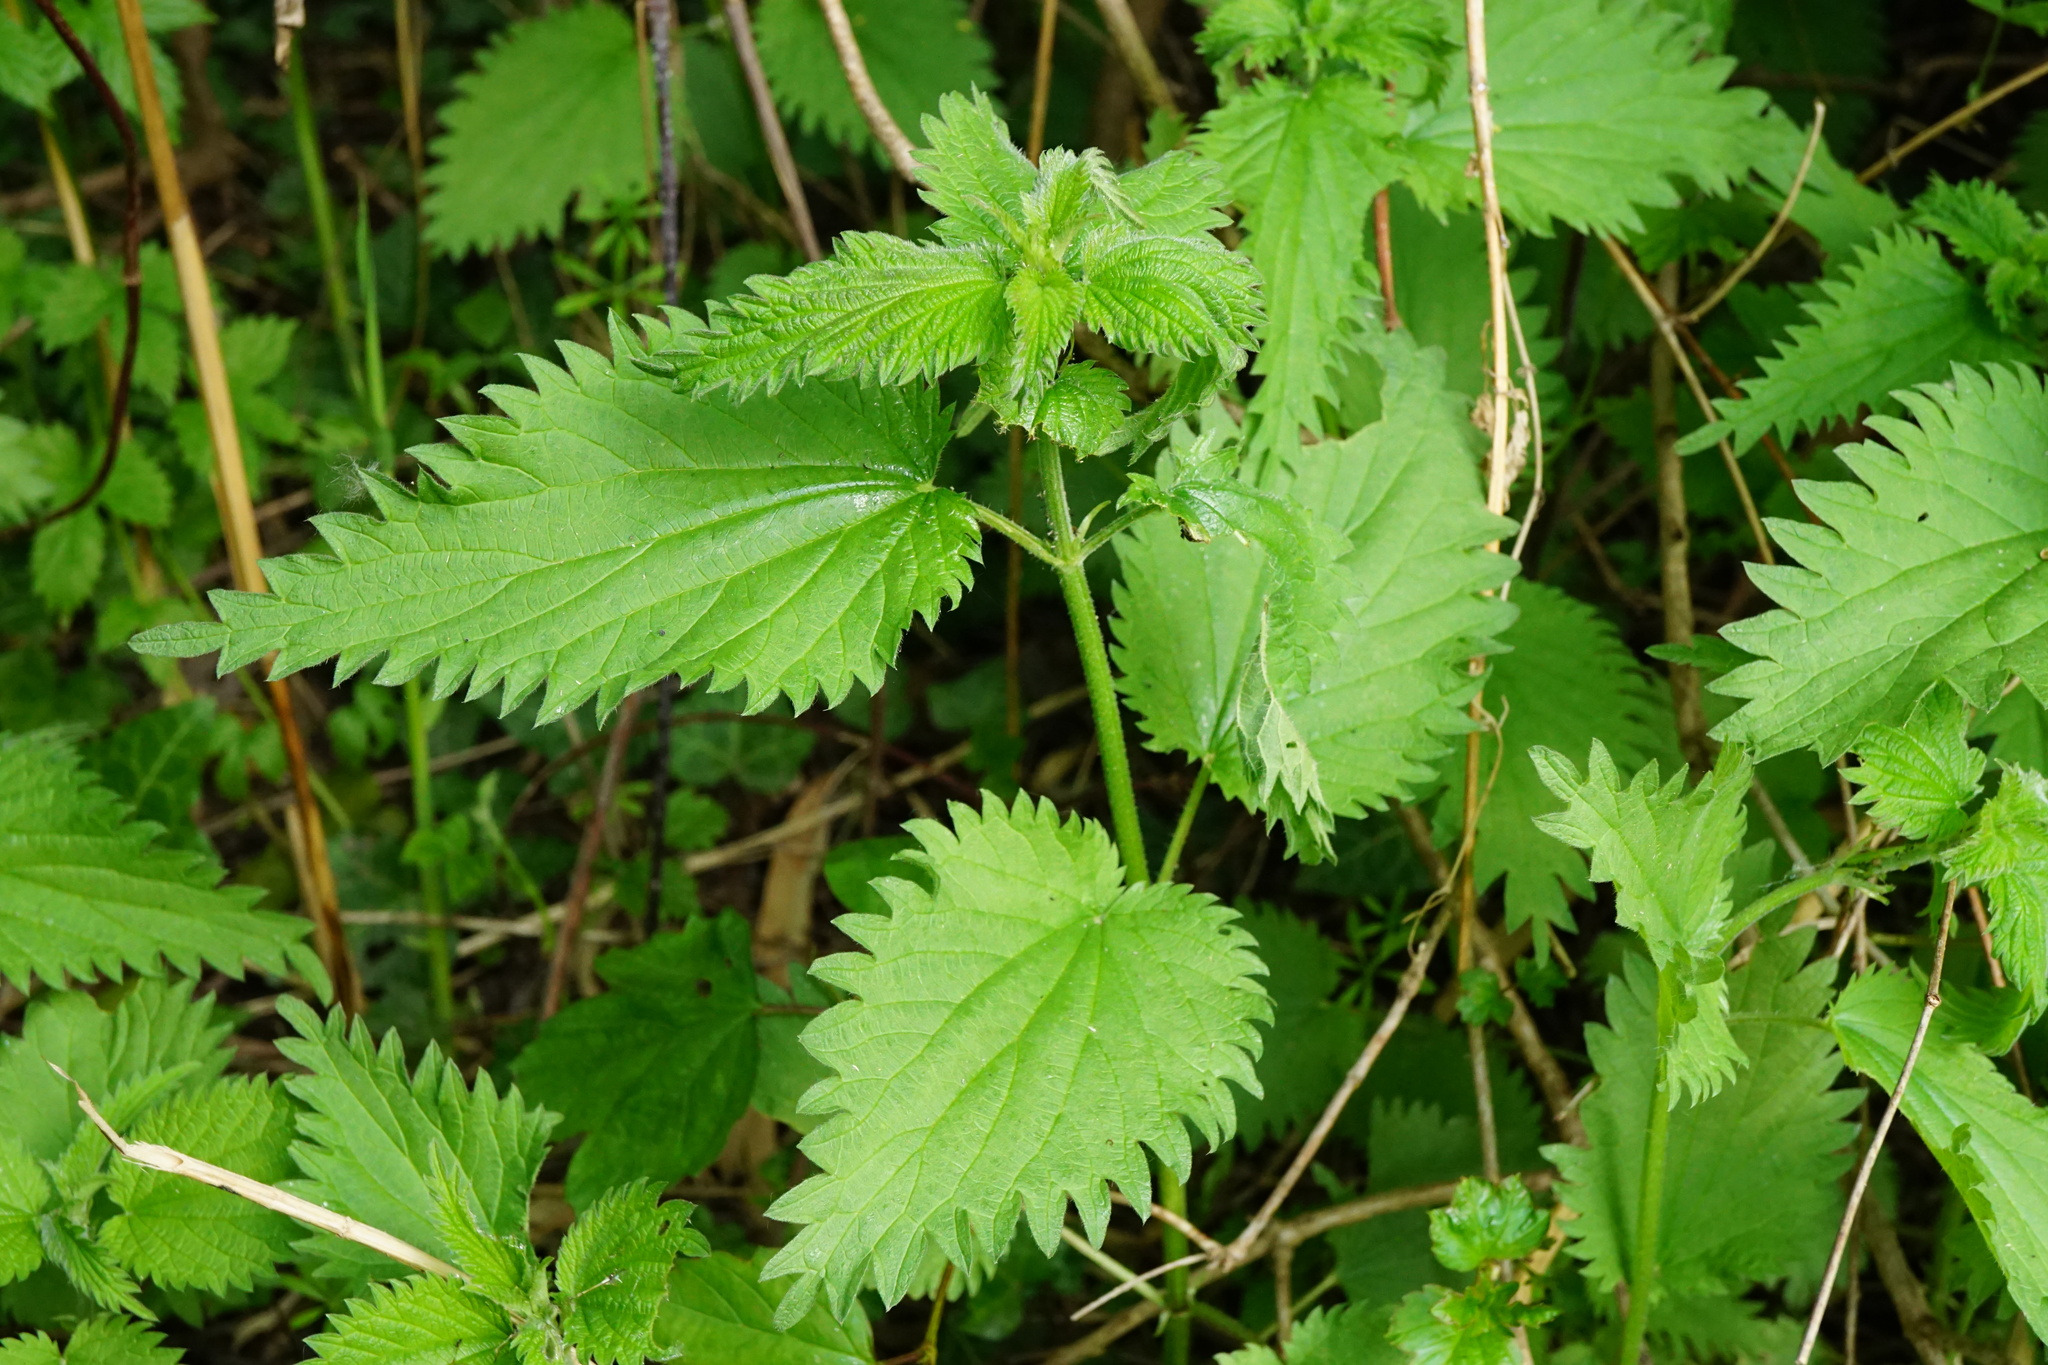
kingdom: Plantae
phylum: Tracheophyta
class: Magnoliopsida
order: Rosales
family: Urticaceae
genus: Urtica
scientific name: Urtica dioica
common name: Common nettle
